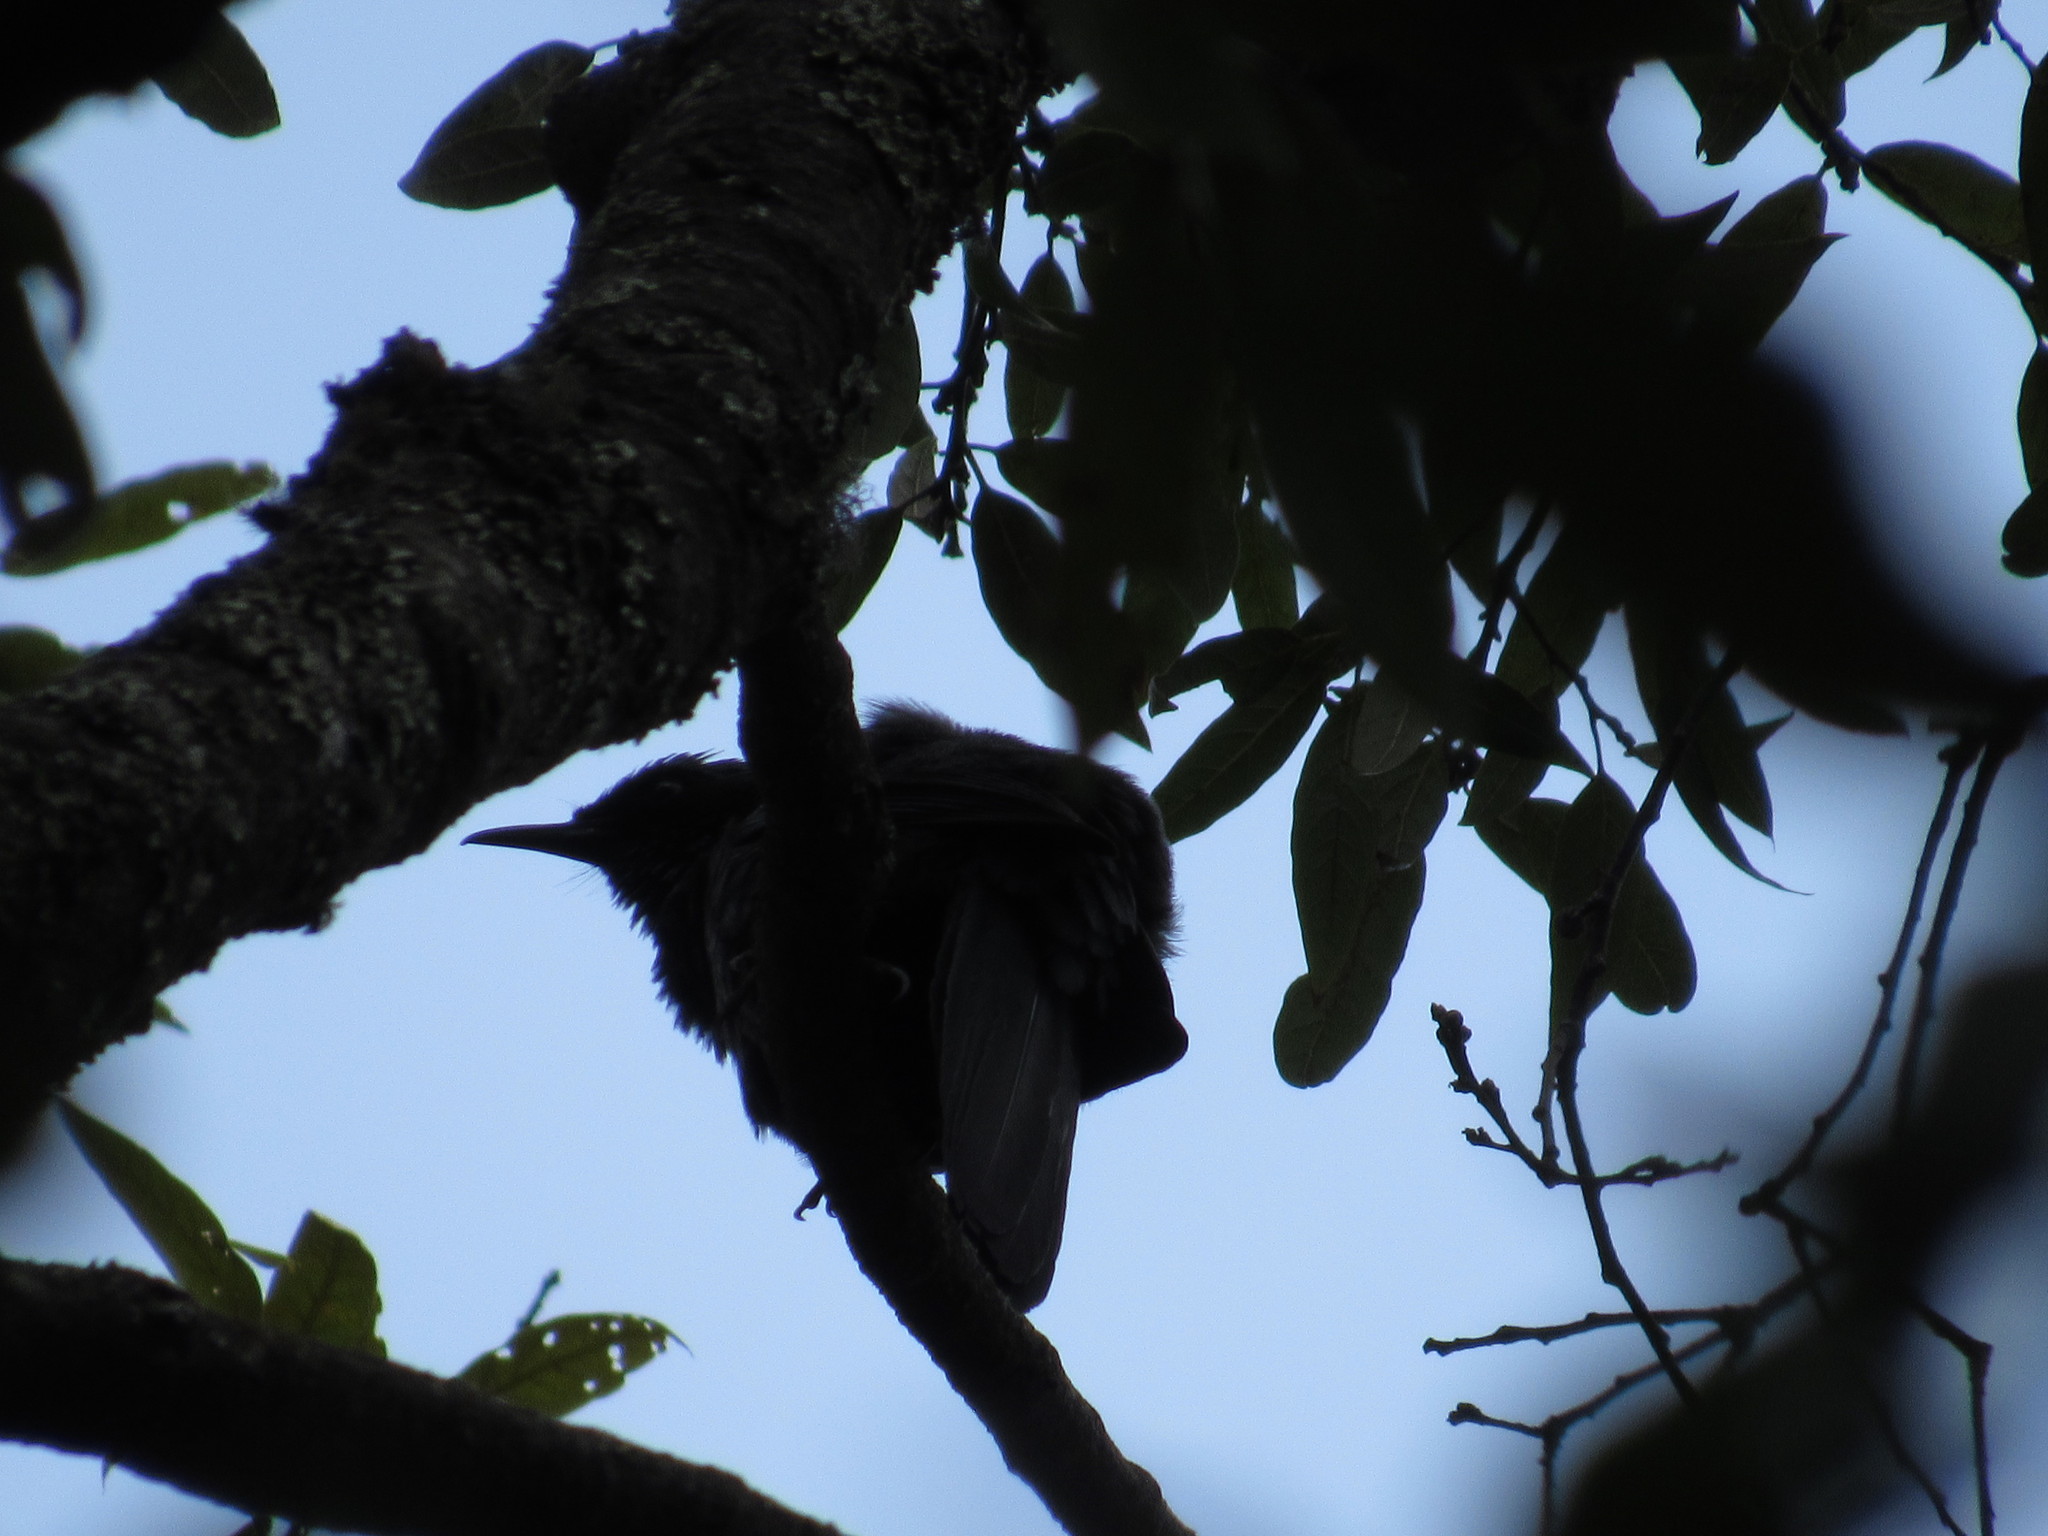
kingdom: Animalia
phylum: Chordata
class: Aves
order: Passeriformes
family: Mimidae
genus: Melanotis
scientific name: Melanotis caerulescens
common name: Blue mockingbird
